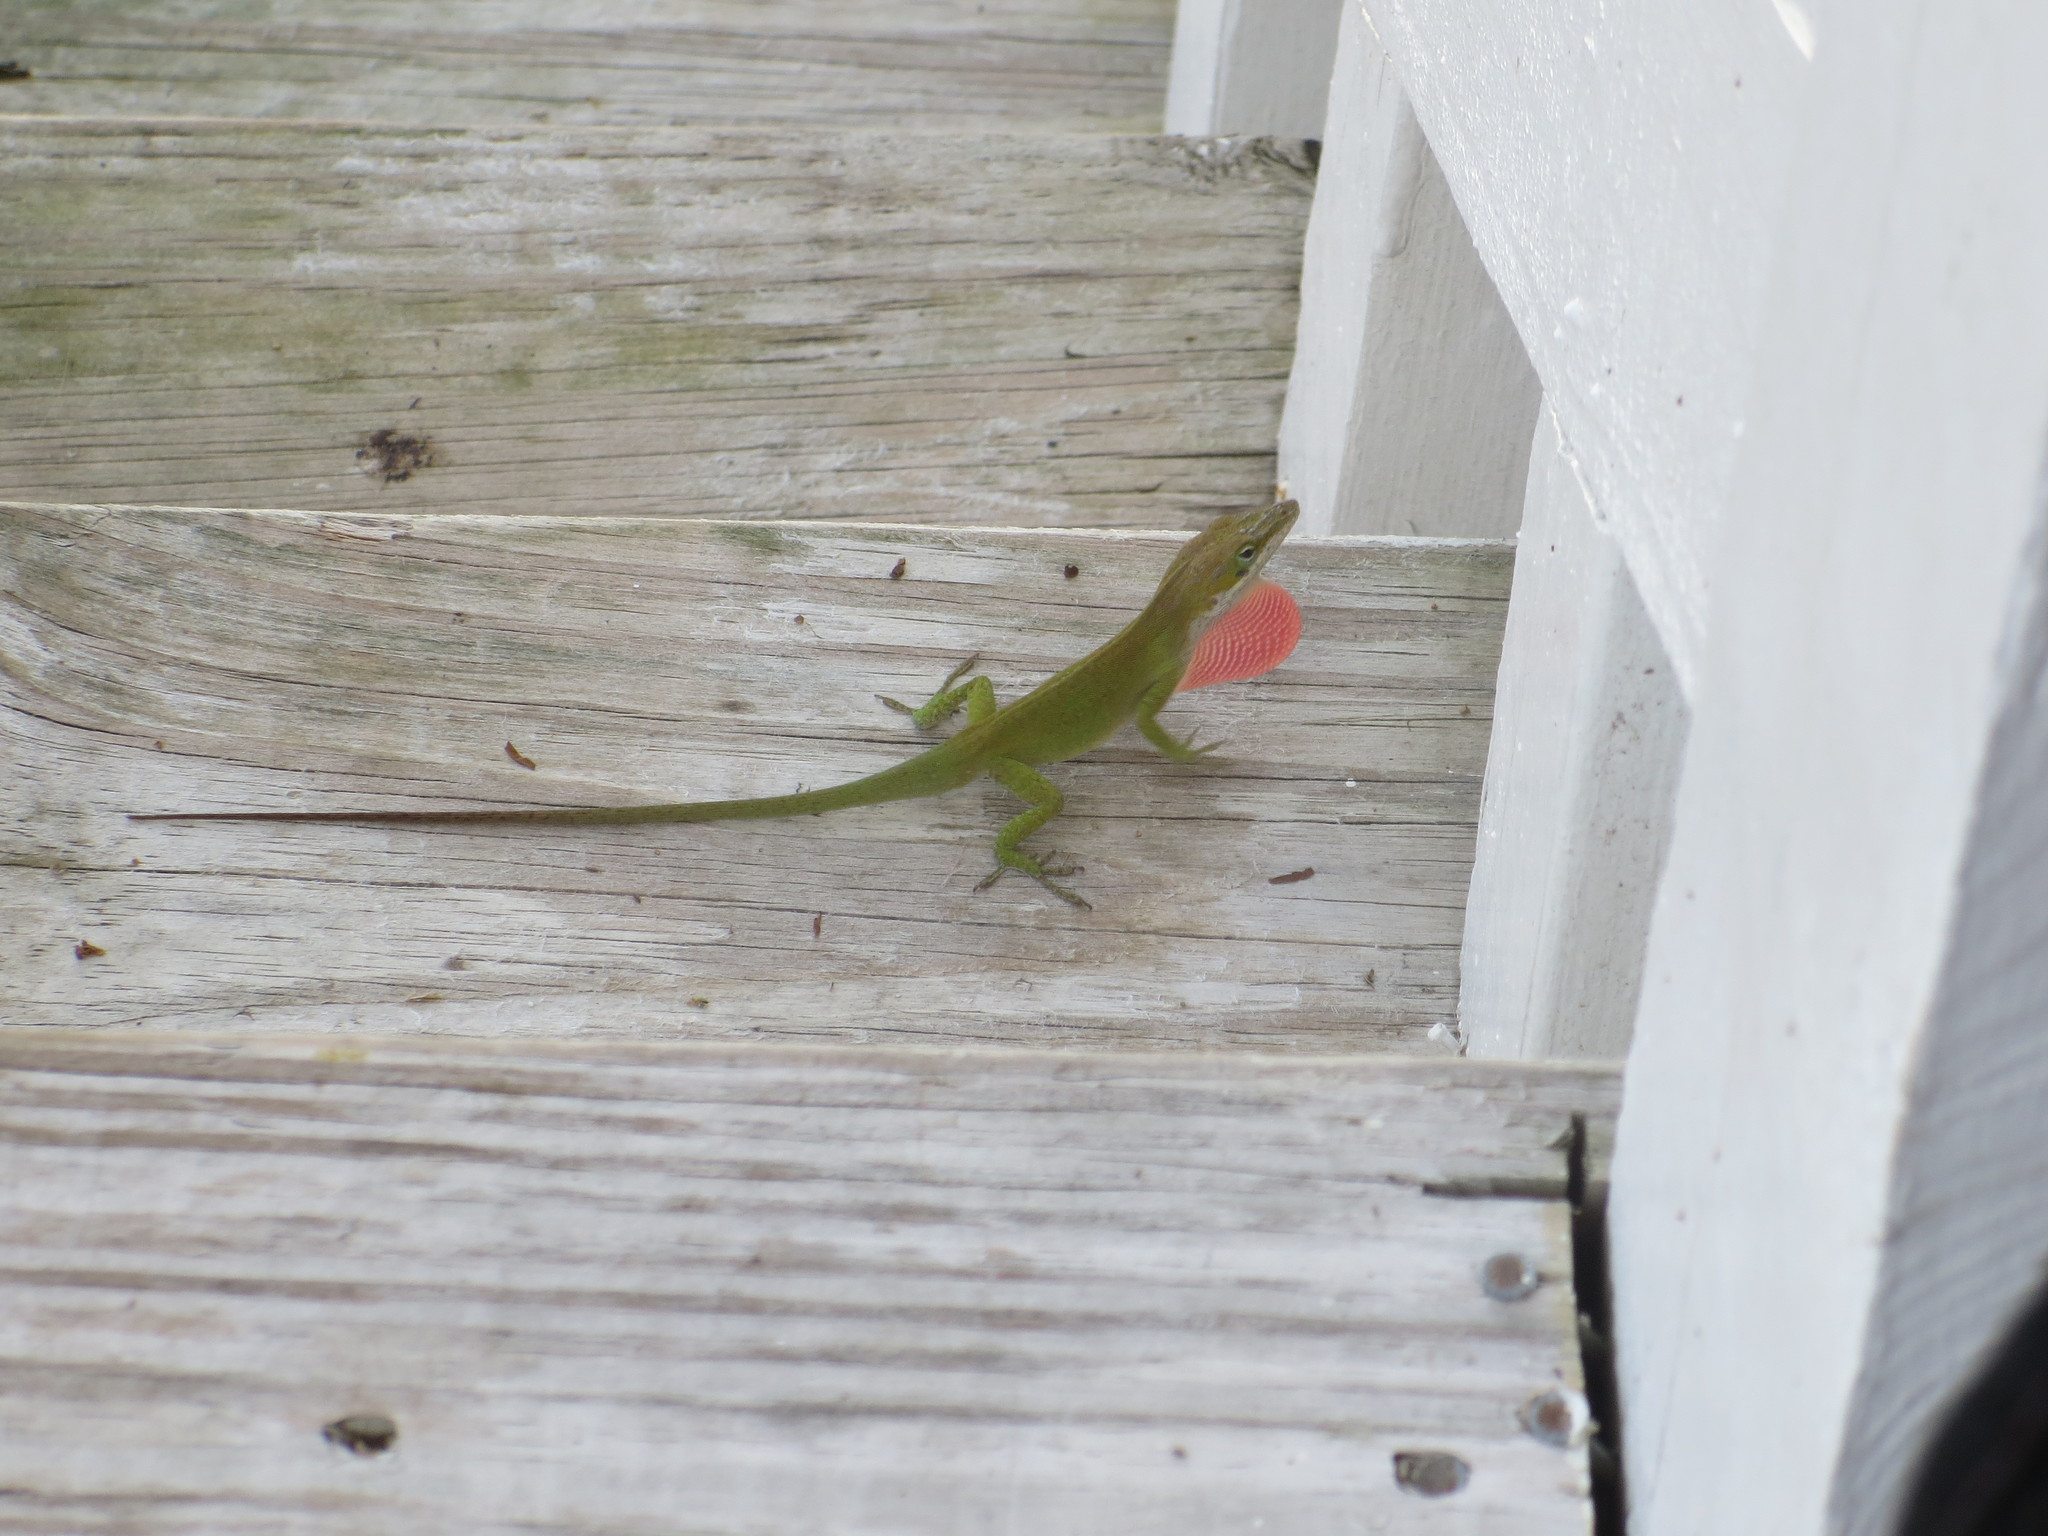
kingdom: Animalia
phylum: Chordata
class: Squamata
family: Dactyloidae
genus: Anolis
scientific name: Anolis carolinensis
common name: Green anole
